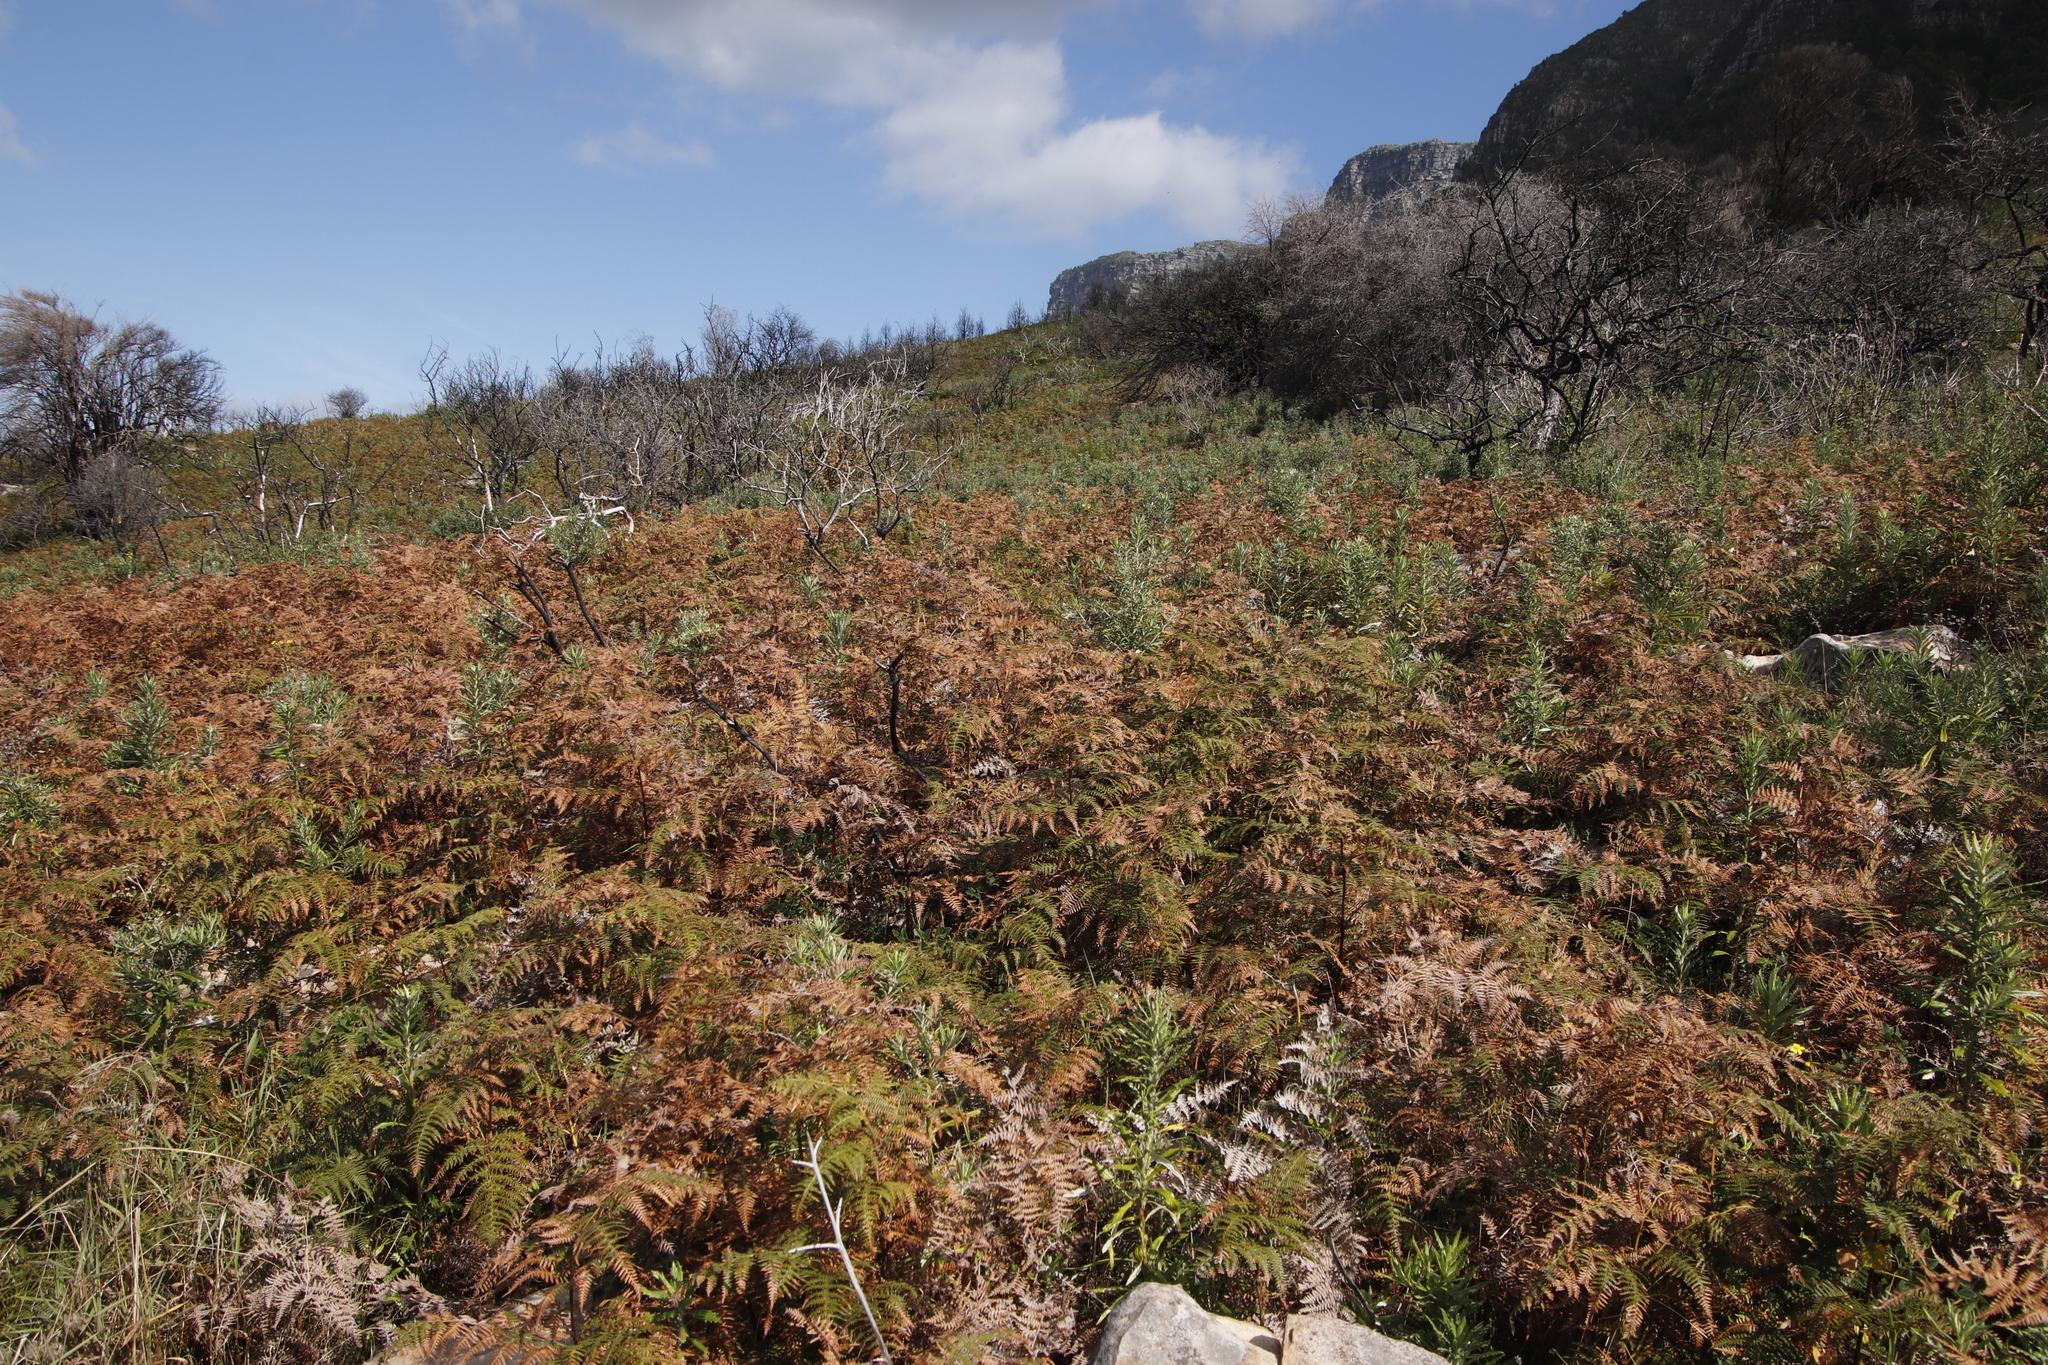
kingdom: Plantae
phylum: Tracheophyta
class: Polypodiopsida
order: Polypodiales
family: Dennstaedtiaceae
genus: Pteridium
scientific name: Pteridium aquilinum
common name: Bracken
